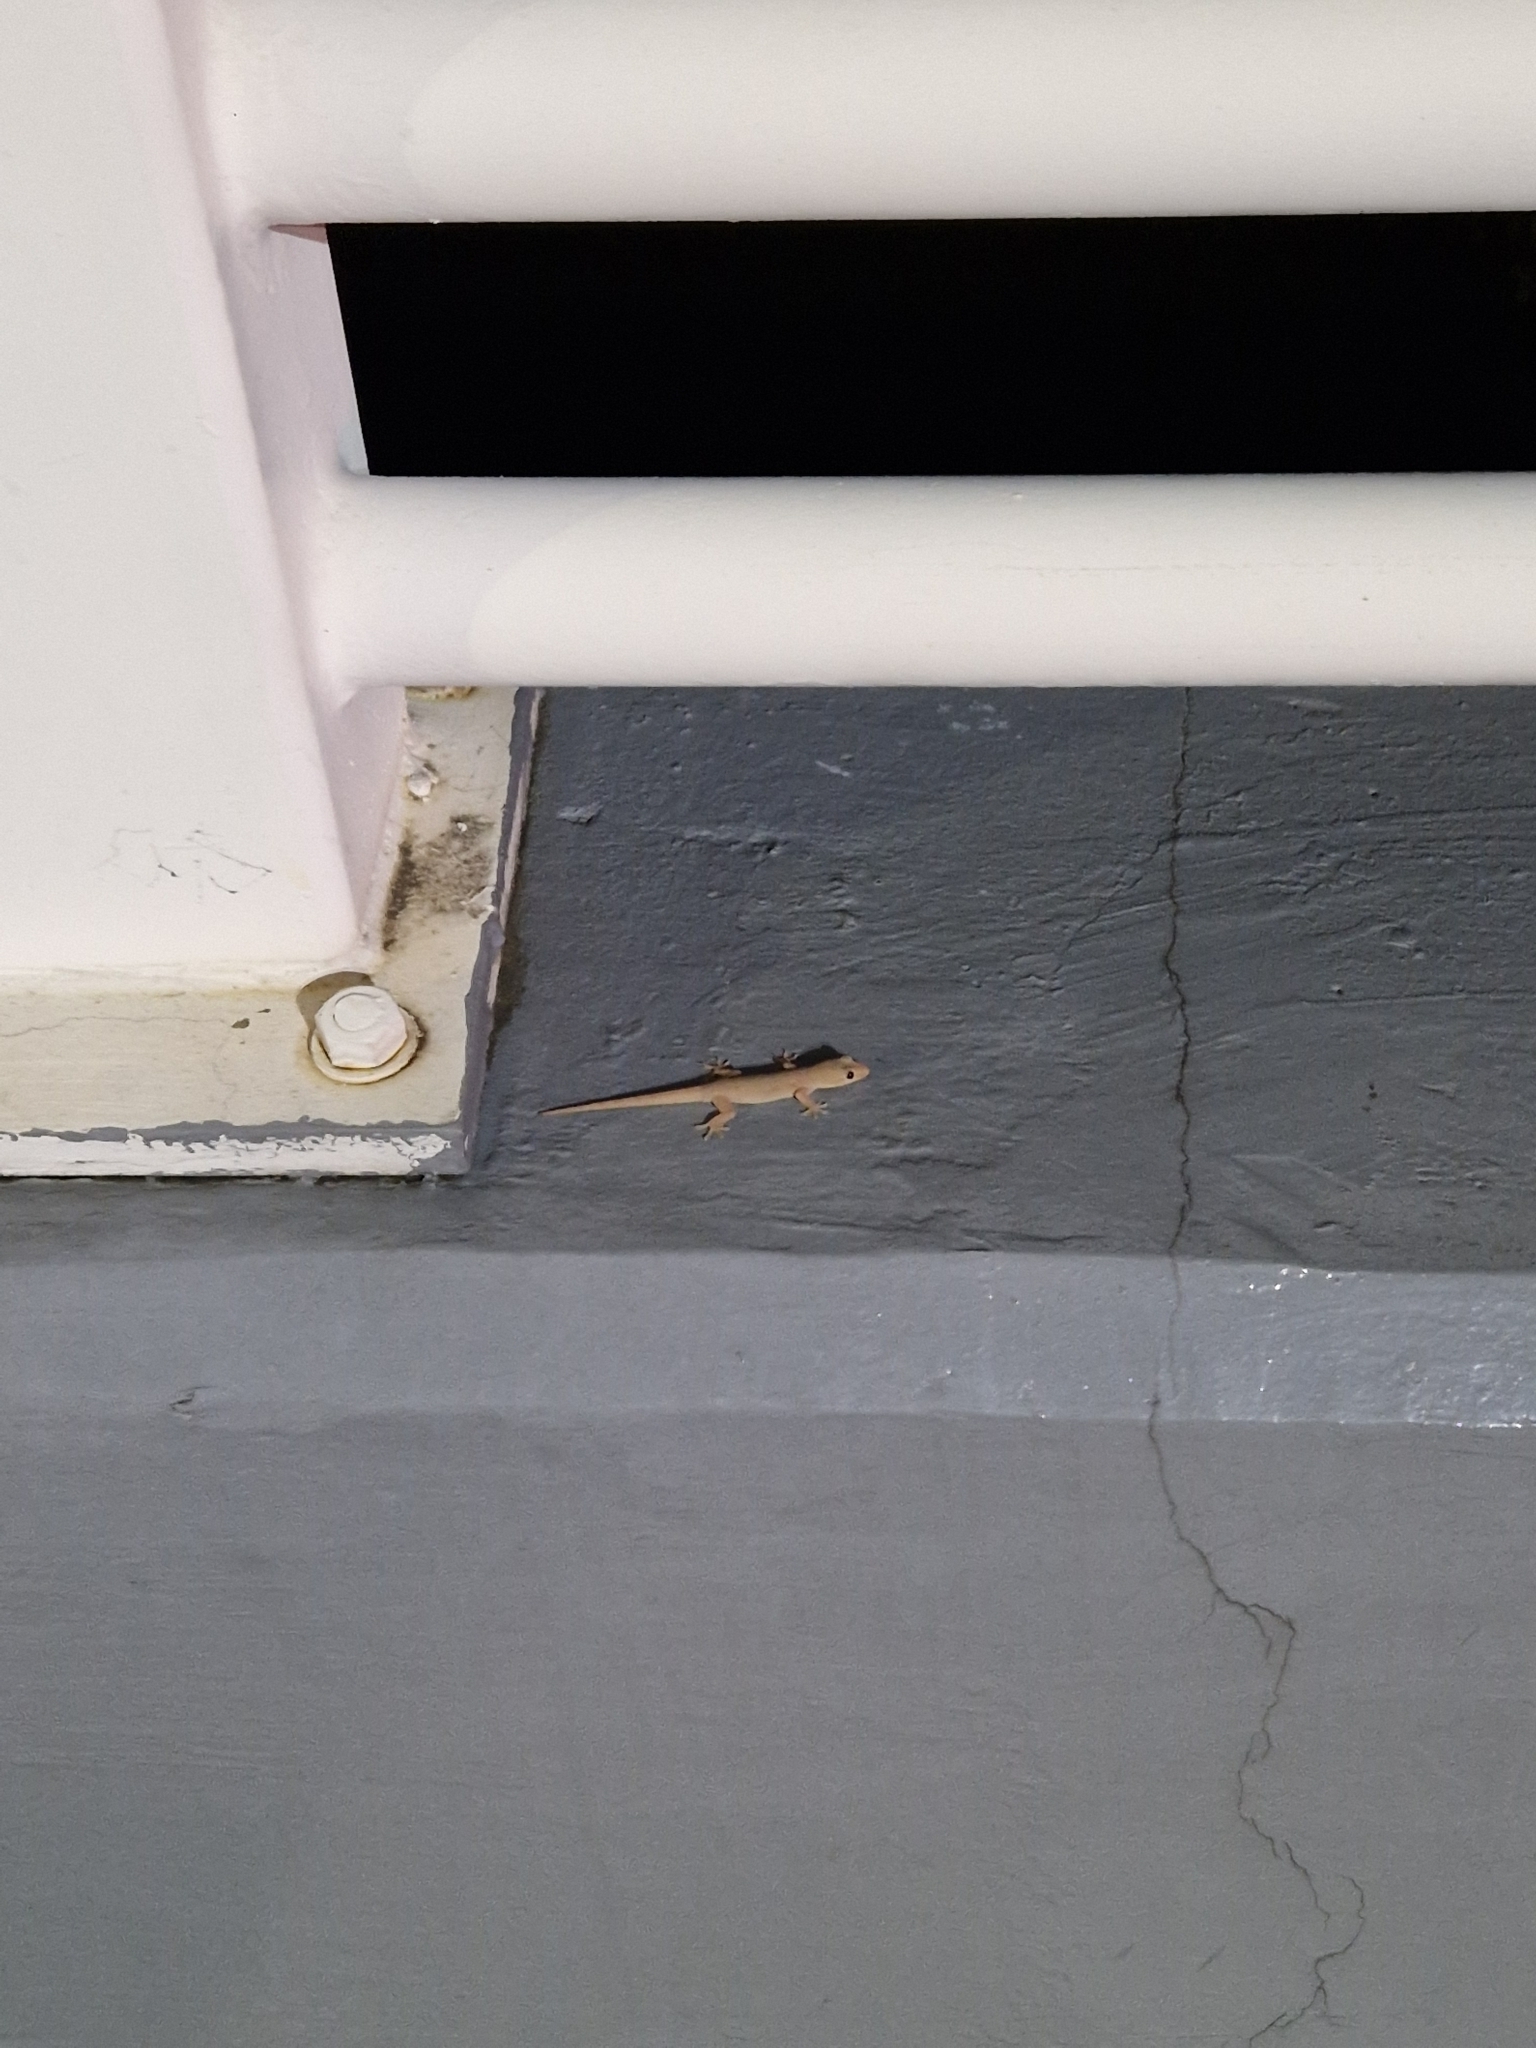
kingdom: Animalia
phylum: Chordata
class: Squamata
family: Gekkonidae
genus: Hemidactylus
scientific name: Hemidactylus frenatus
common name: Common house gecko
